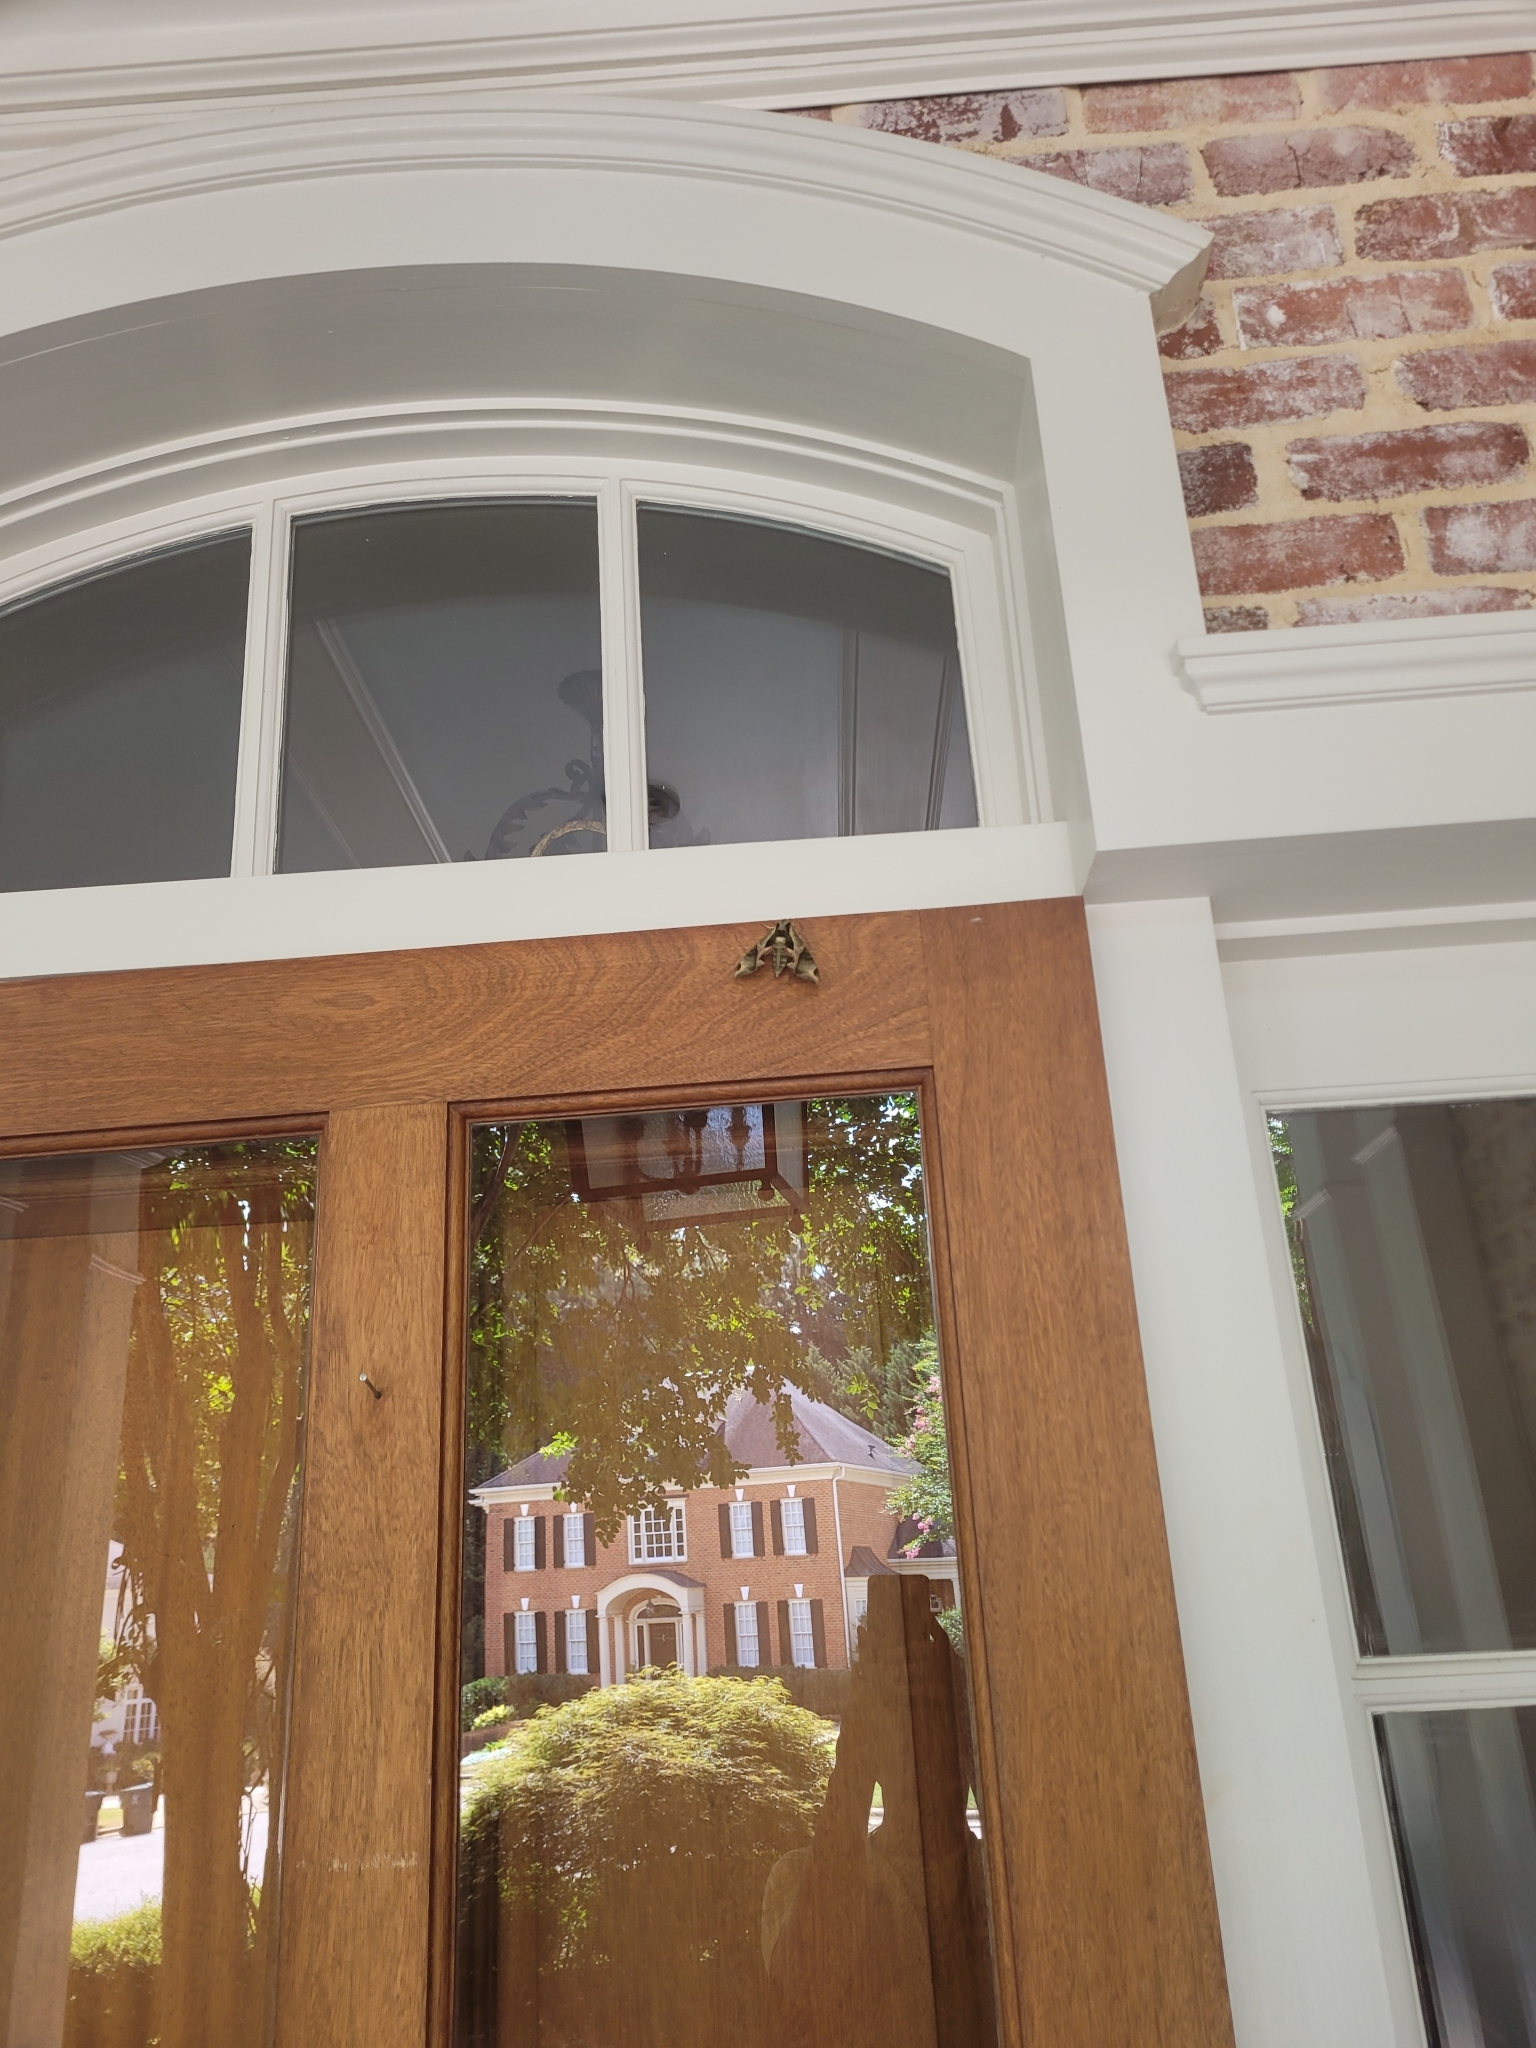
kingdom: Animalia
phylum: Arthropoda
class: Insecta
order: Lepidoptera
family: Sphingidae
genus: Eumorpha
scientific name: Eumorpha pandorus
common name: Pandora sphinx
